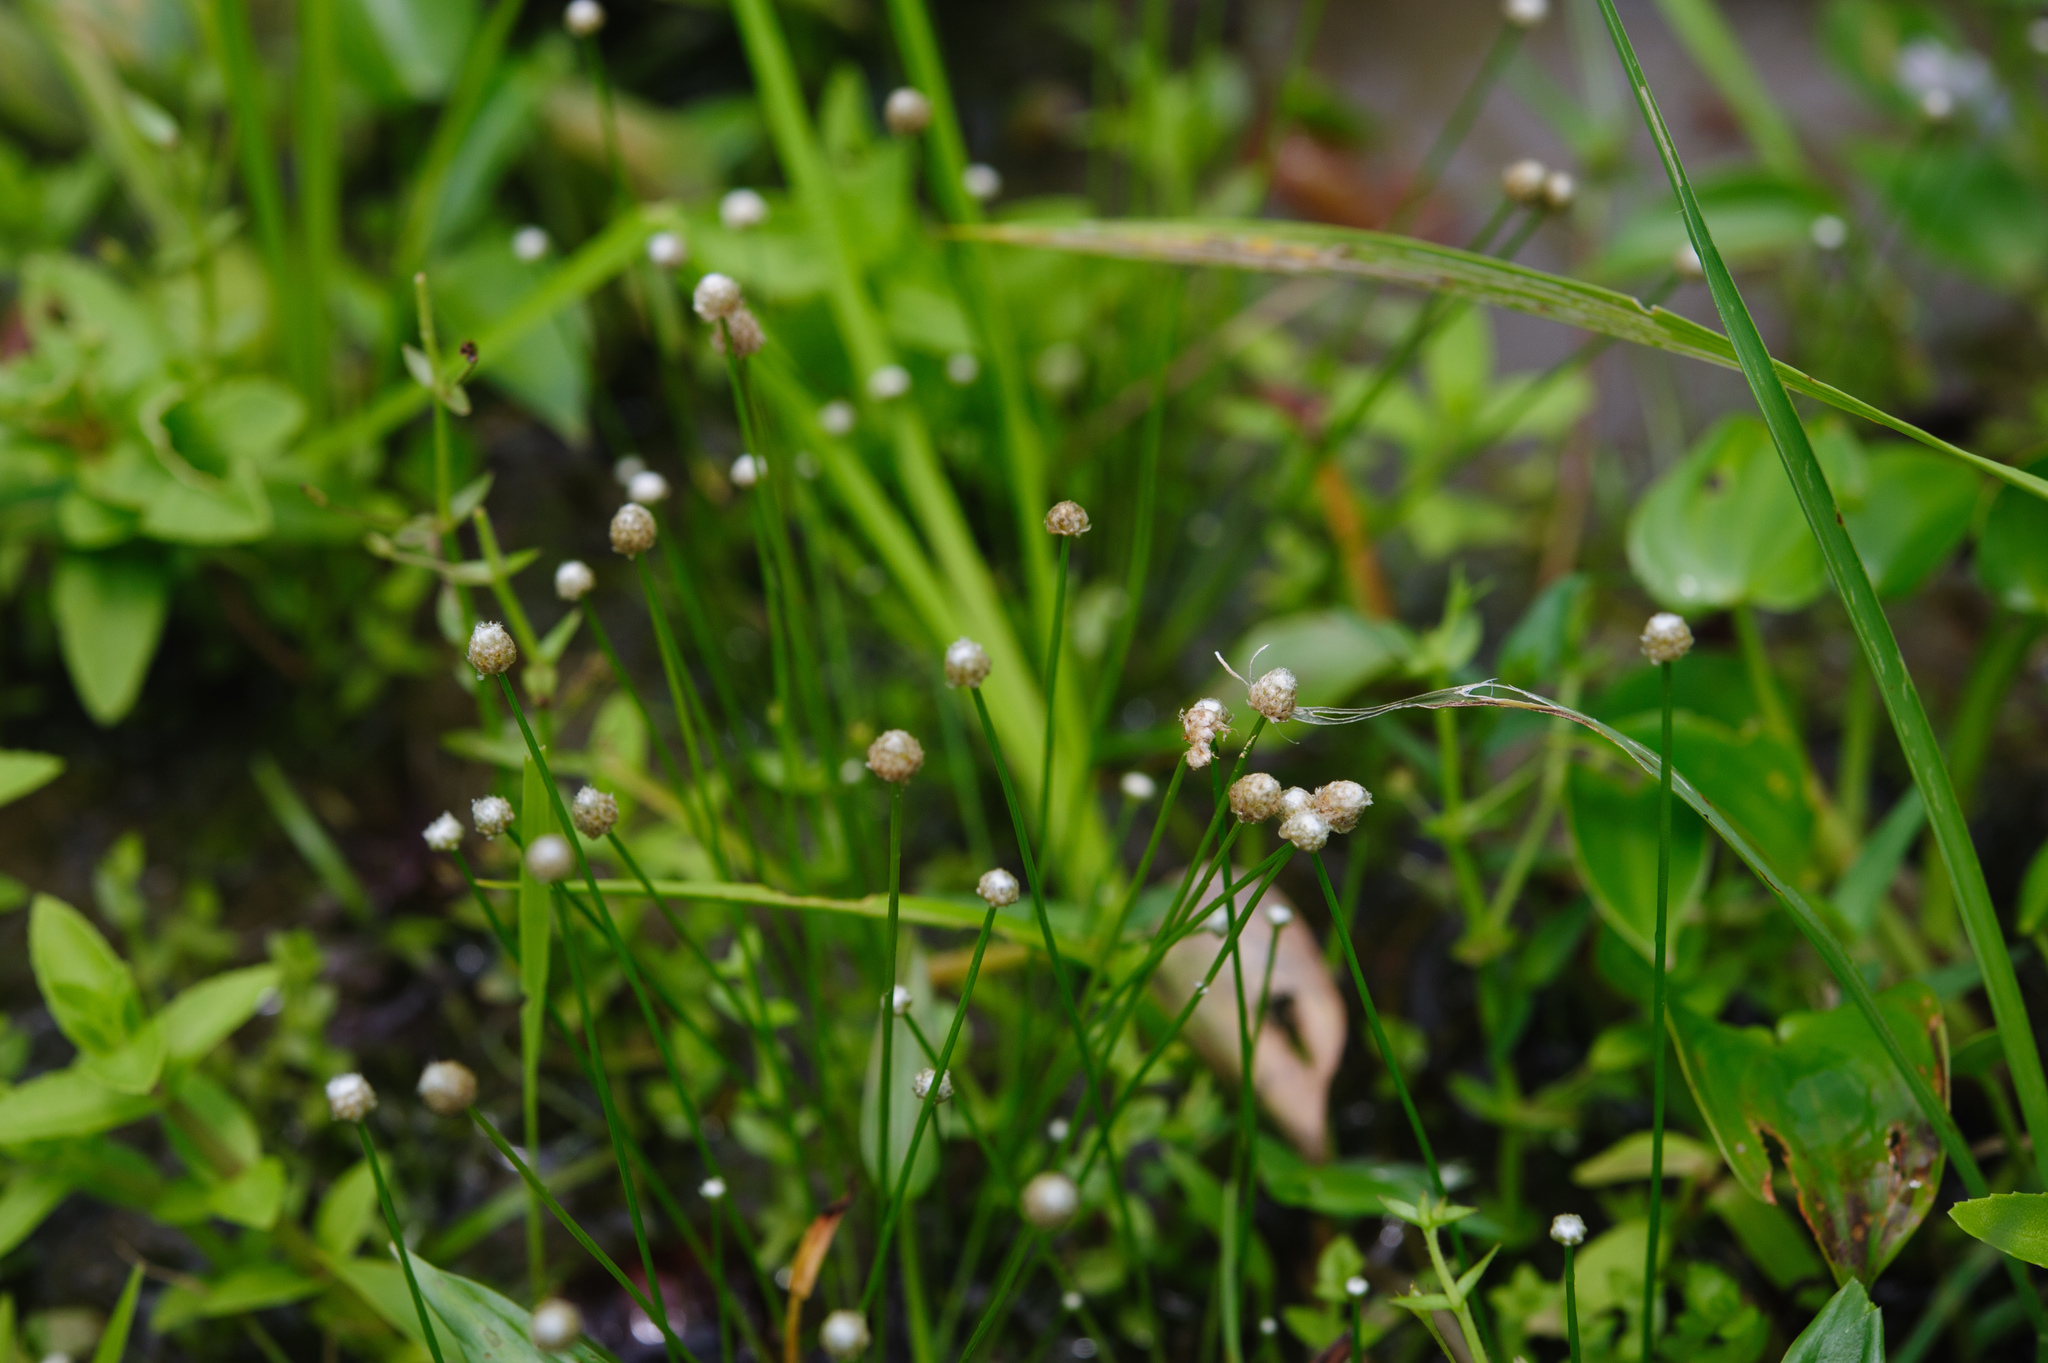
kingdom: Plantae
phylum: Tracheophyta
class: Liliopsida
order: Poales
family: Eriocaulaceae
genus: Eriocaulon
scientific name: Eriocaulon sexangulare
